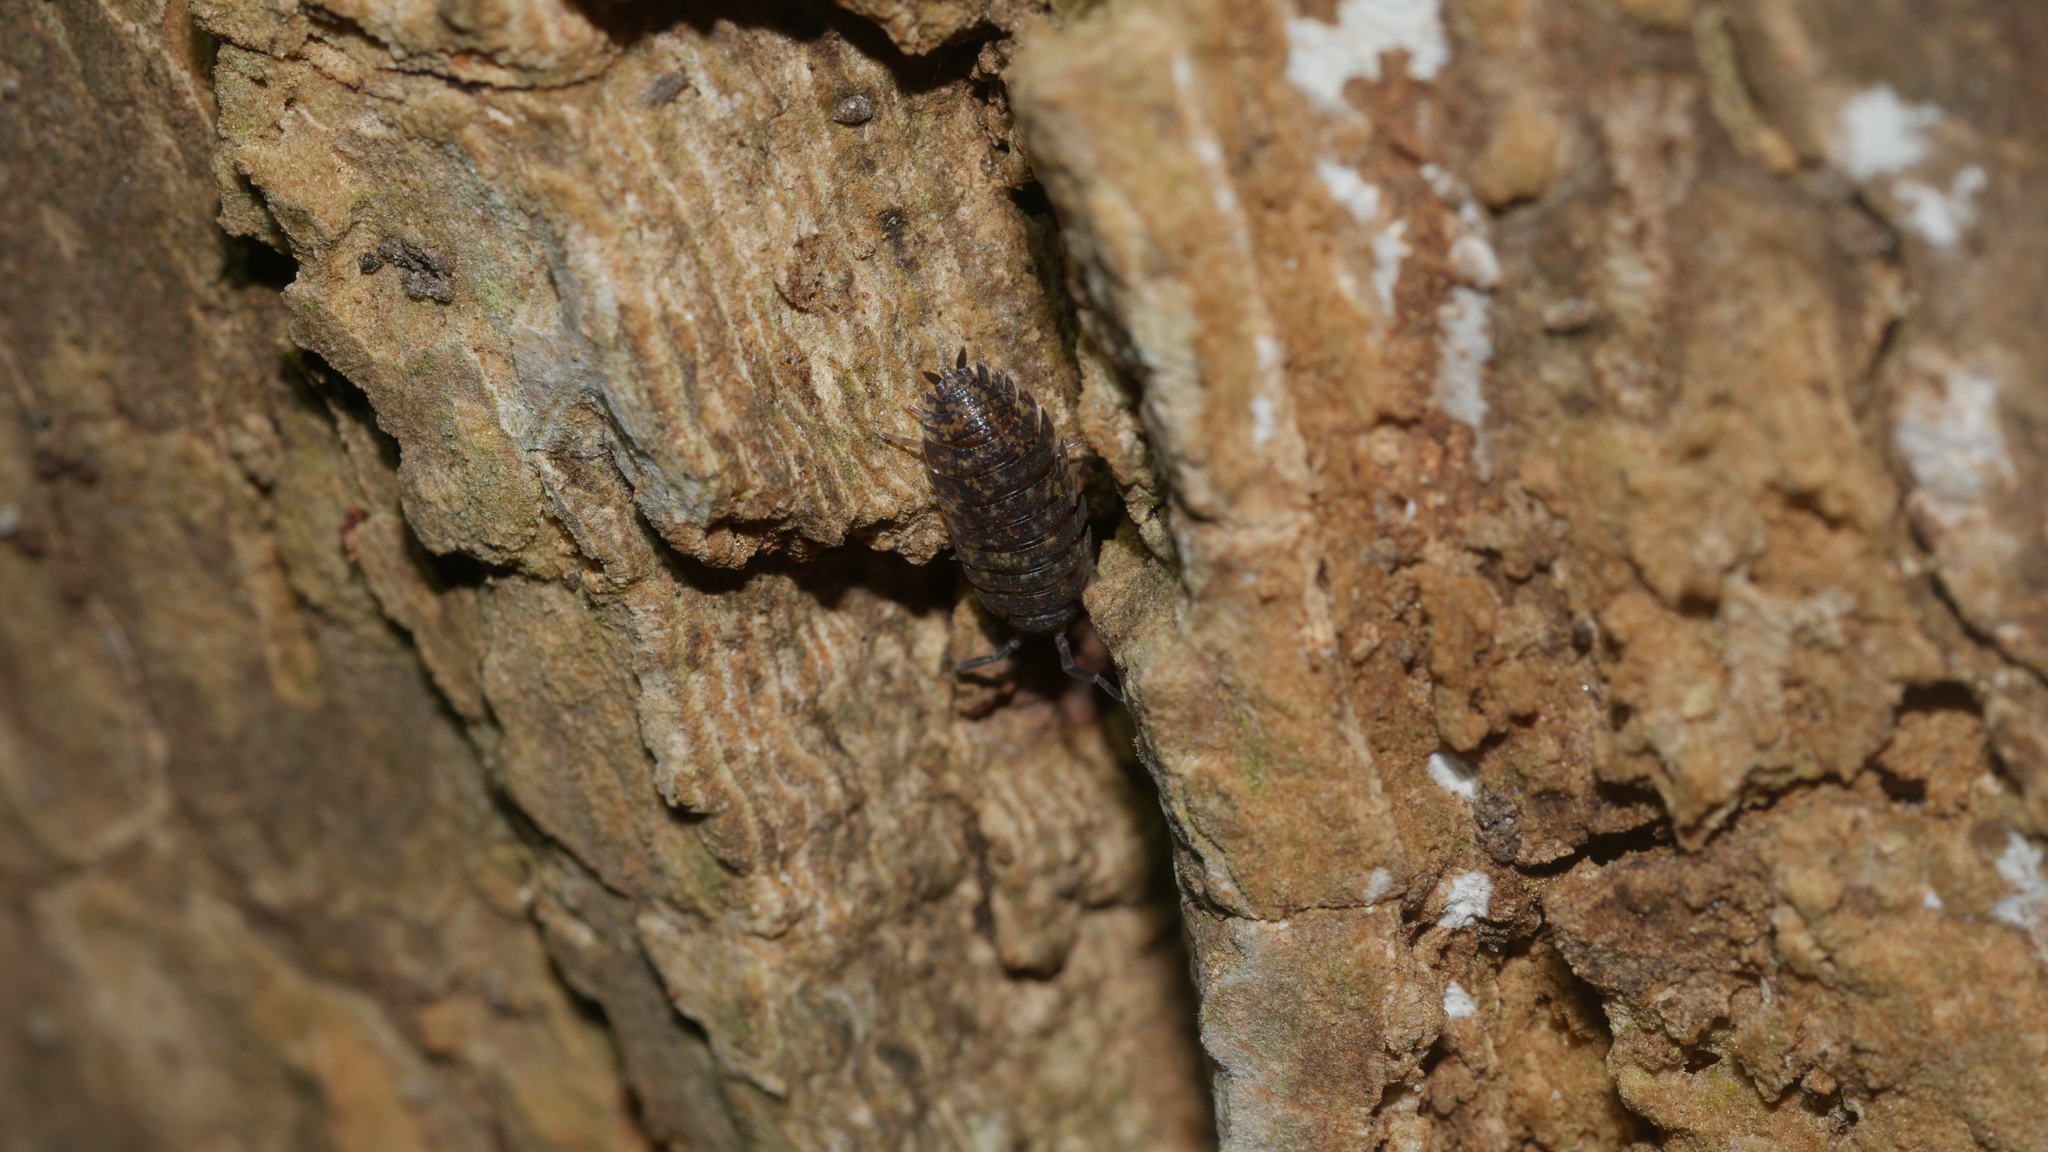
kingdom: Animalia
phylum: Arthropoda
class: Malacostraca
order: Isopoda
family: Porcellionidae
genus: Porcellio
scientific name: Porcellio scaber
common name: Common rough woodlouse
